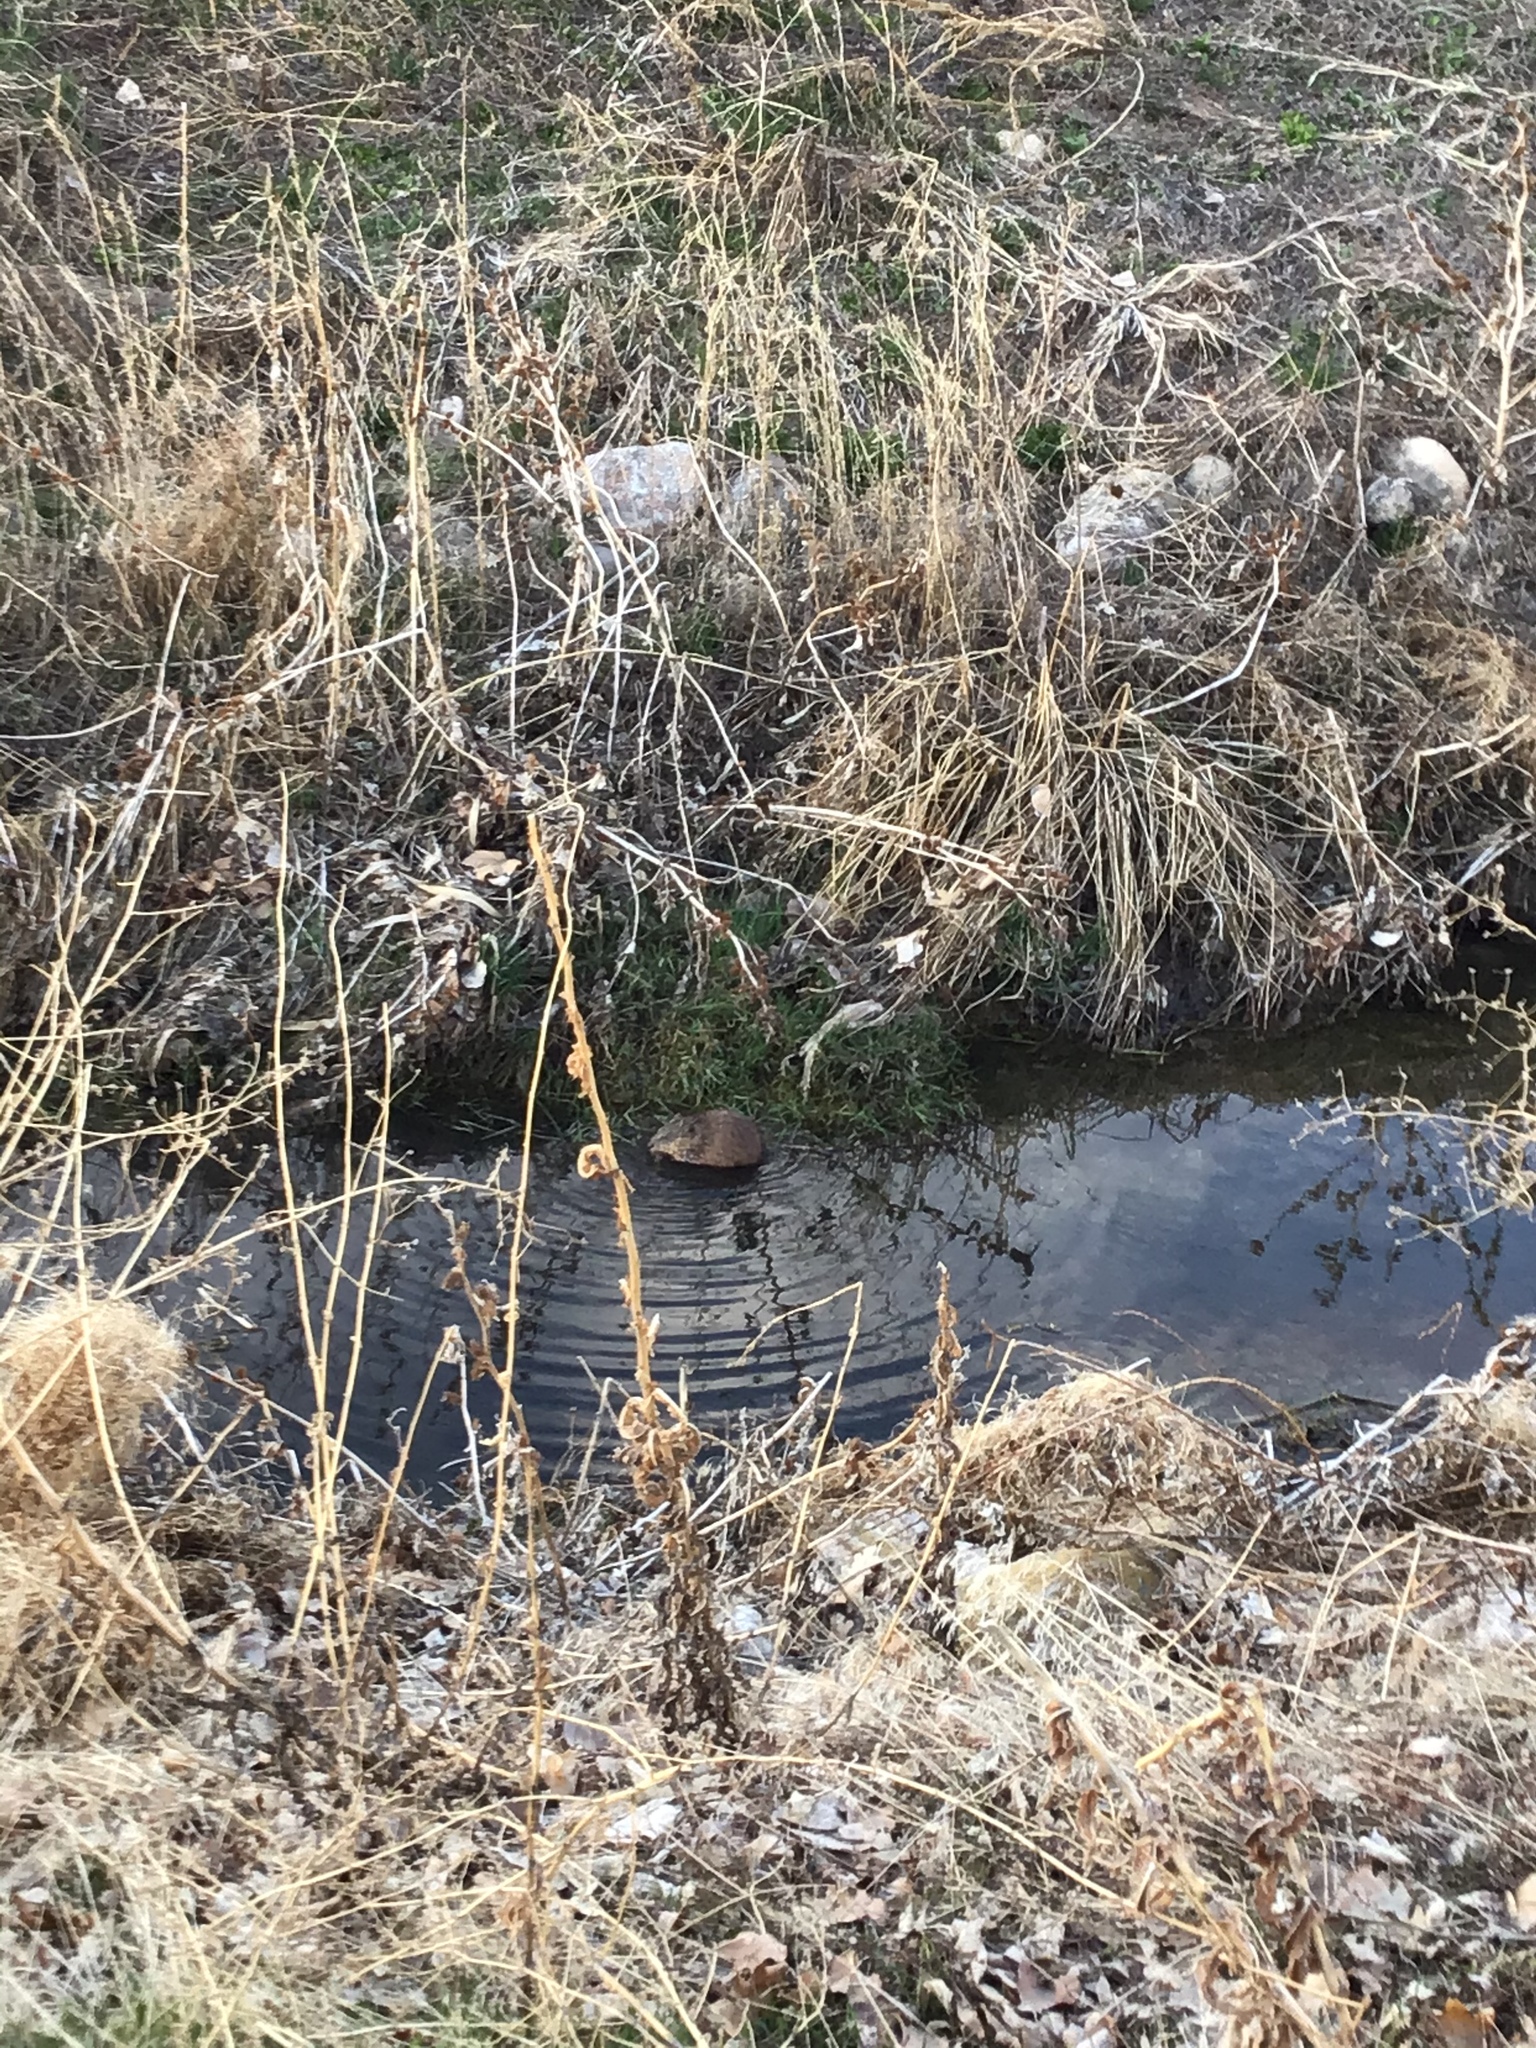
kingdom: Animalia
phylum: Chordata
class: Mammalia
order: Rodentia
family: Cricetidae
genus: Ondatra
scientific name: Ondatra zibethicus
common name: Muskrat
